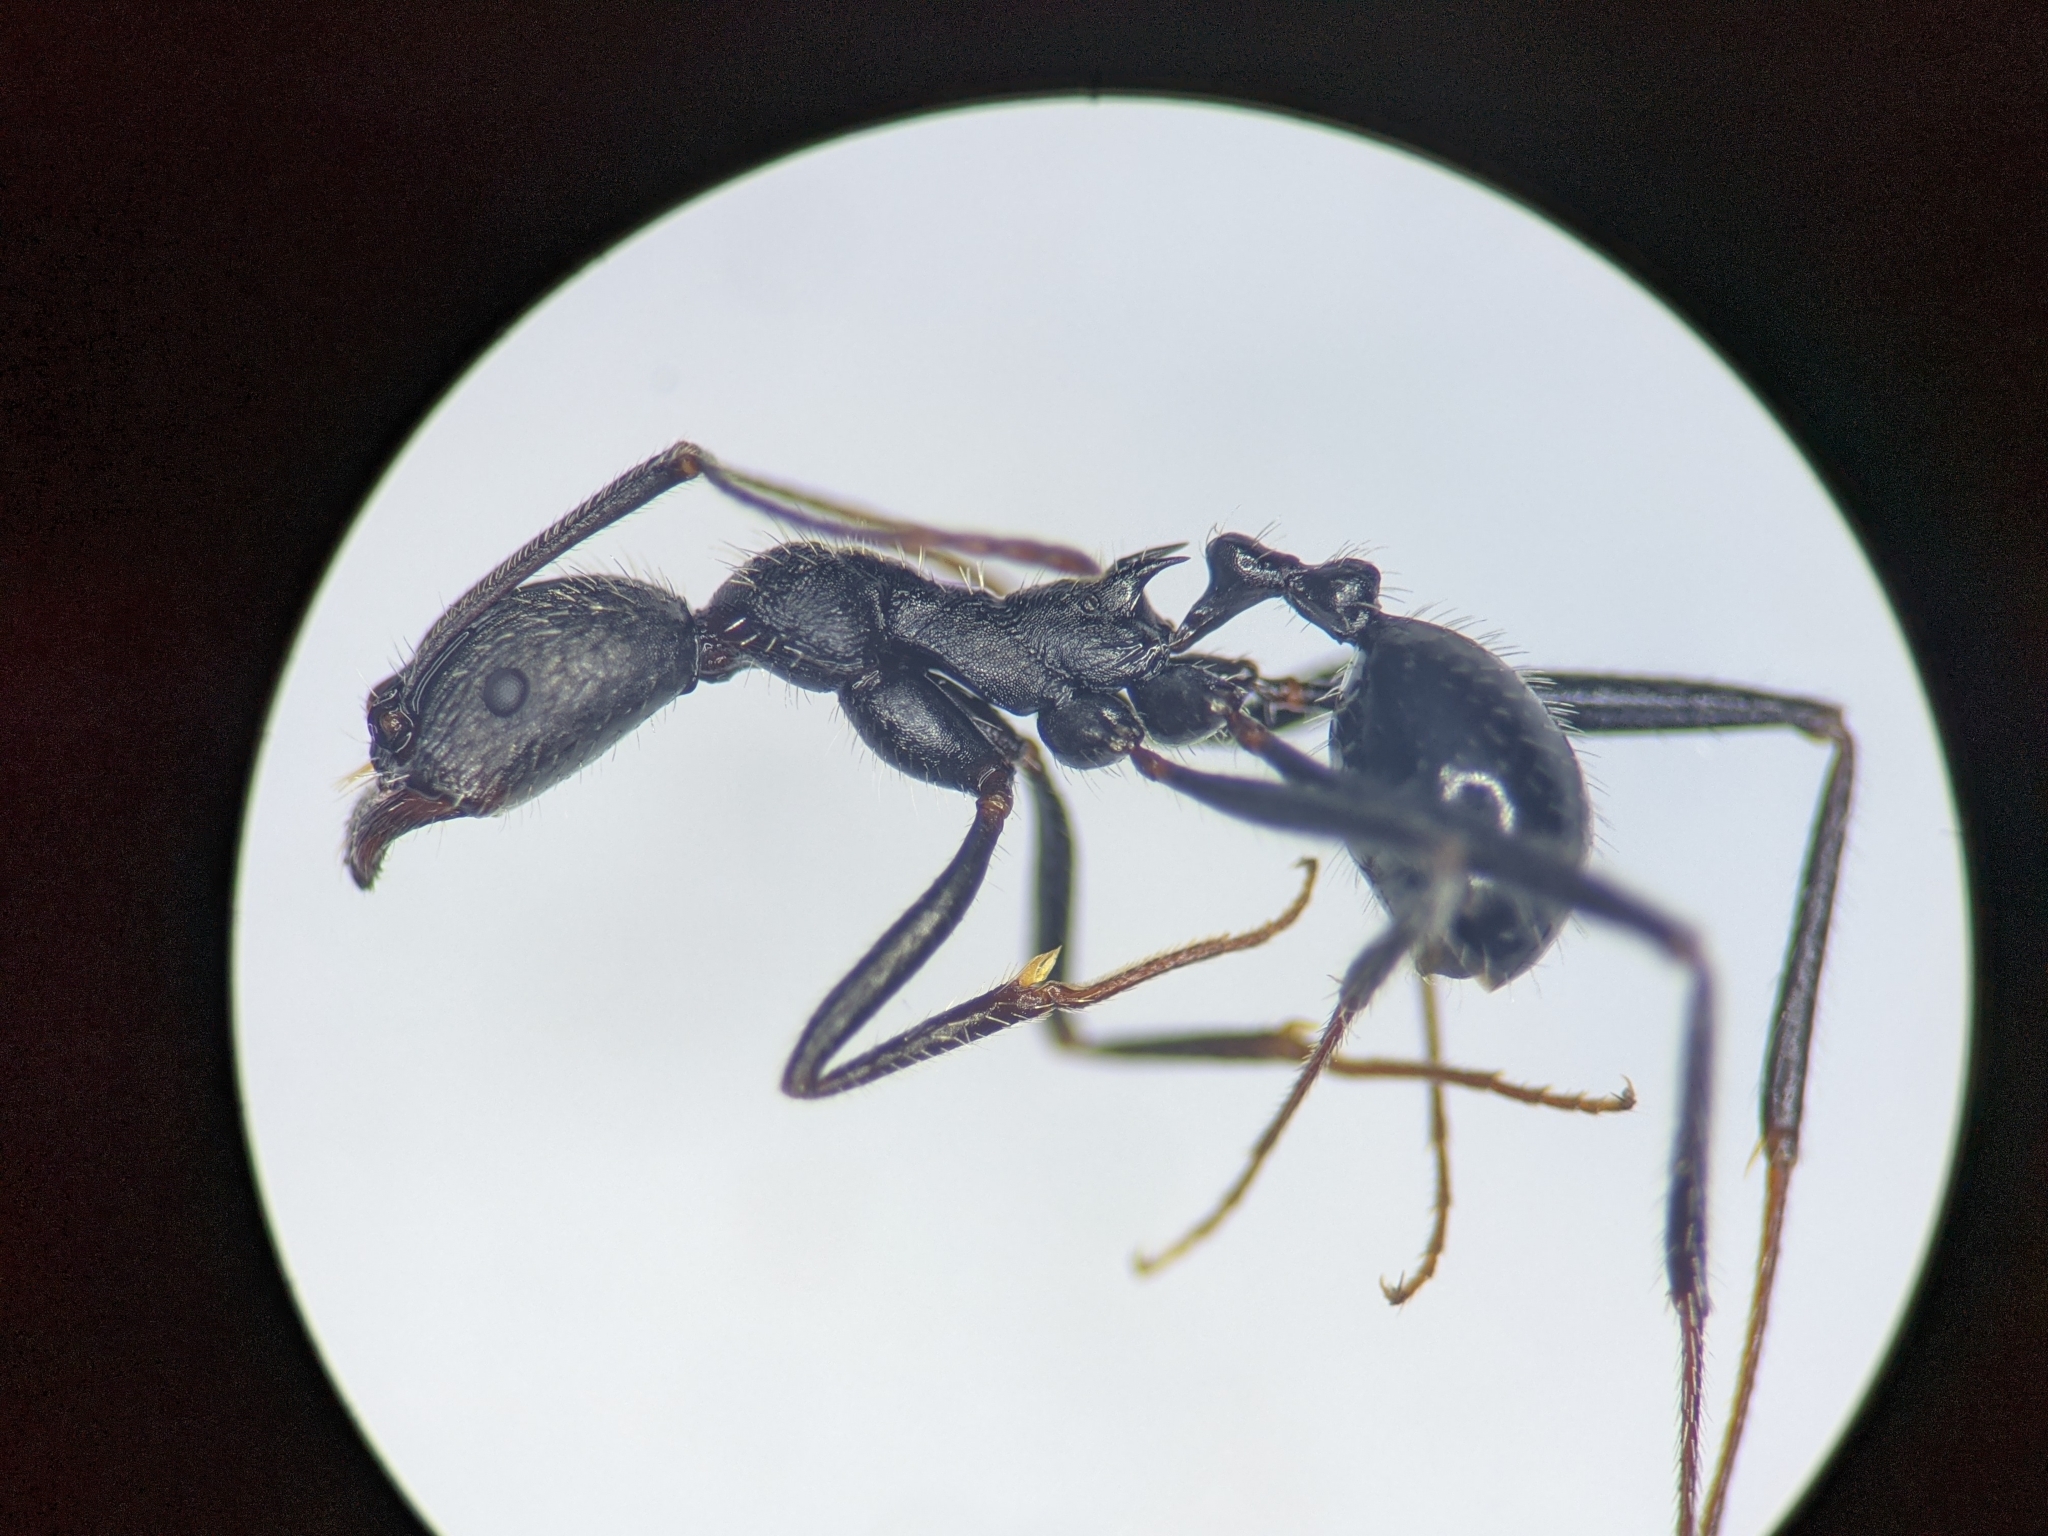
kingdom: Animalia
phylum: Arthropoda
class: Insecta
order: Hymenoptera
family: Formicidae
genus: Aphaenogaster
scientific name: Aphaenogaster iberica
